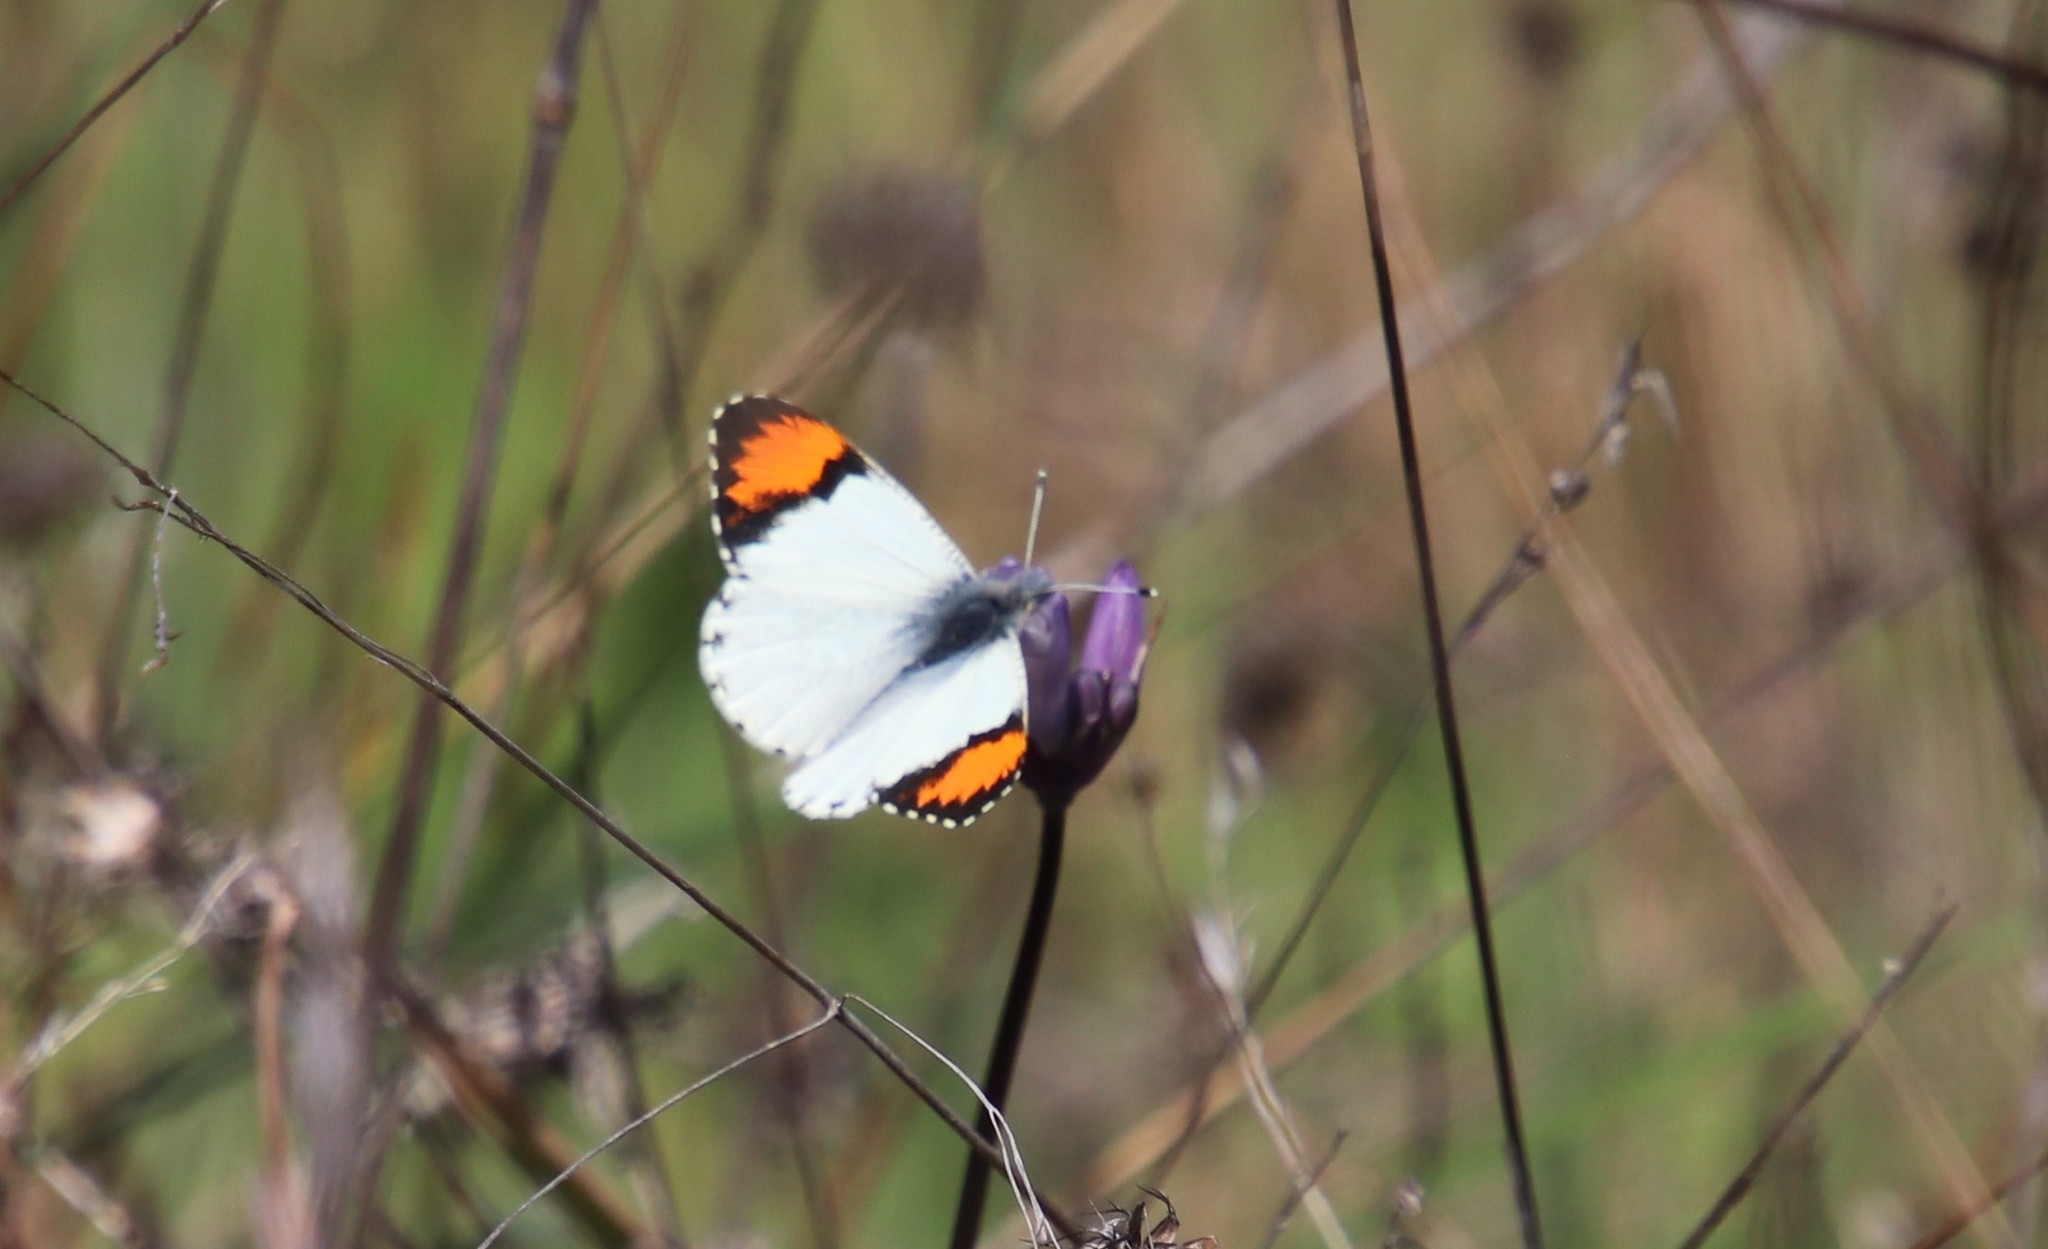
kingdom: Animalia
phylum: Arthropoda
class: Insecta
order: Lepidoptera
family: Pieridae
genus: Anthocharis
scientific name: Anthocharis sara
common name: Sara's orangetip
